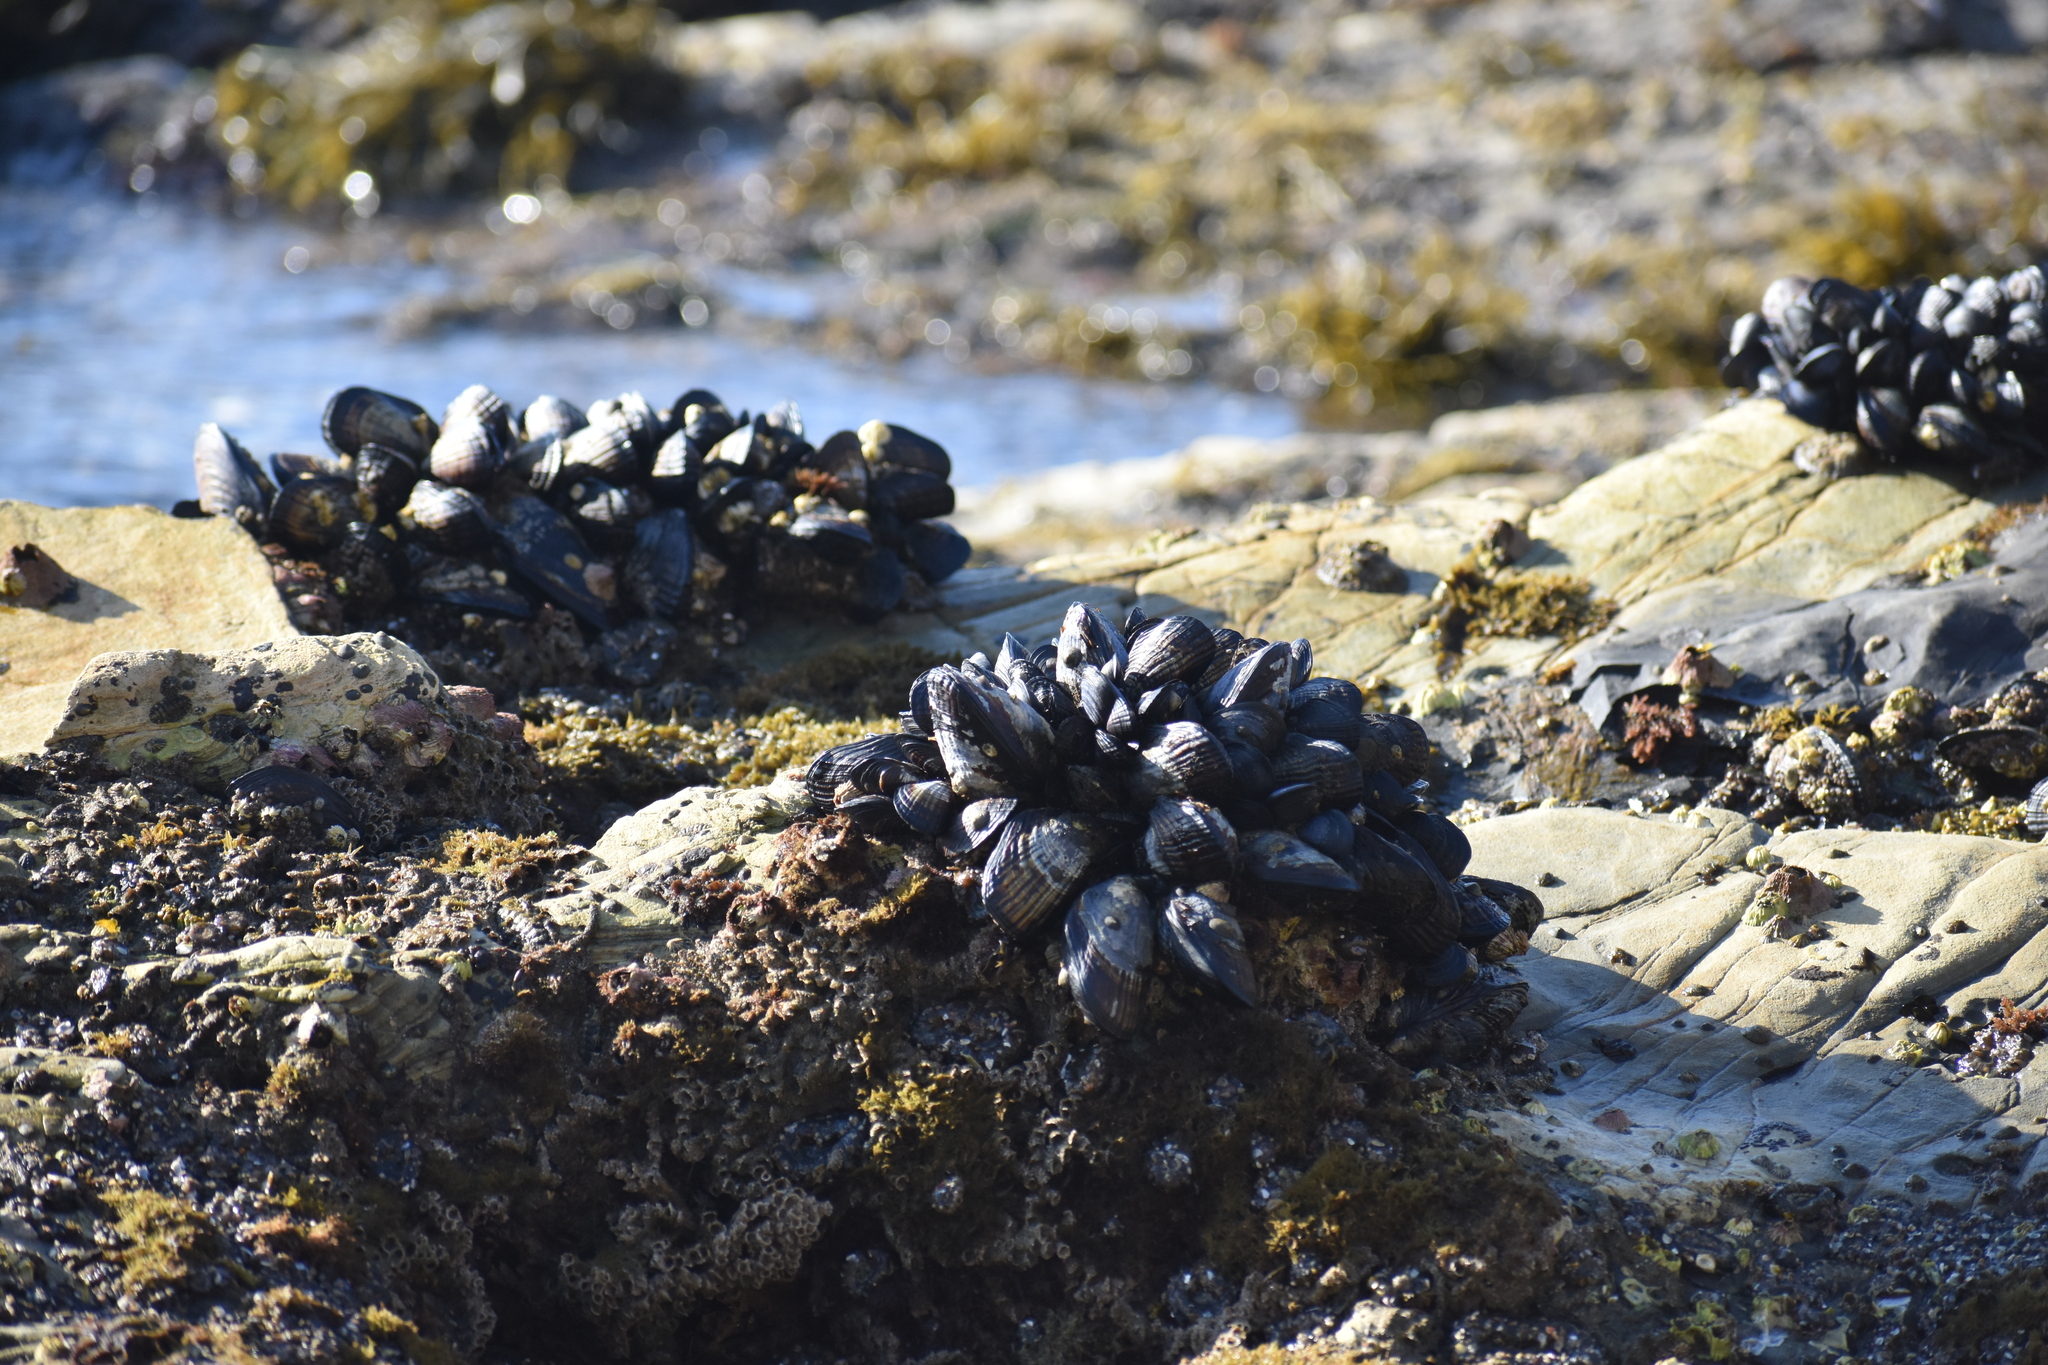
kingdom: Animalia
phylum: Mollusca
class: Bivalvia
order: Mytilida
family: Mytilidae
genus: Mytilus
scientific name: Mytilus californianus
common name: California mussel
